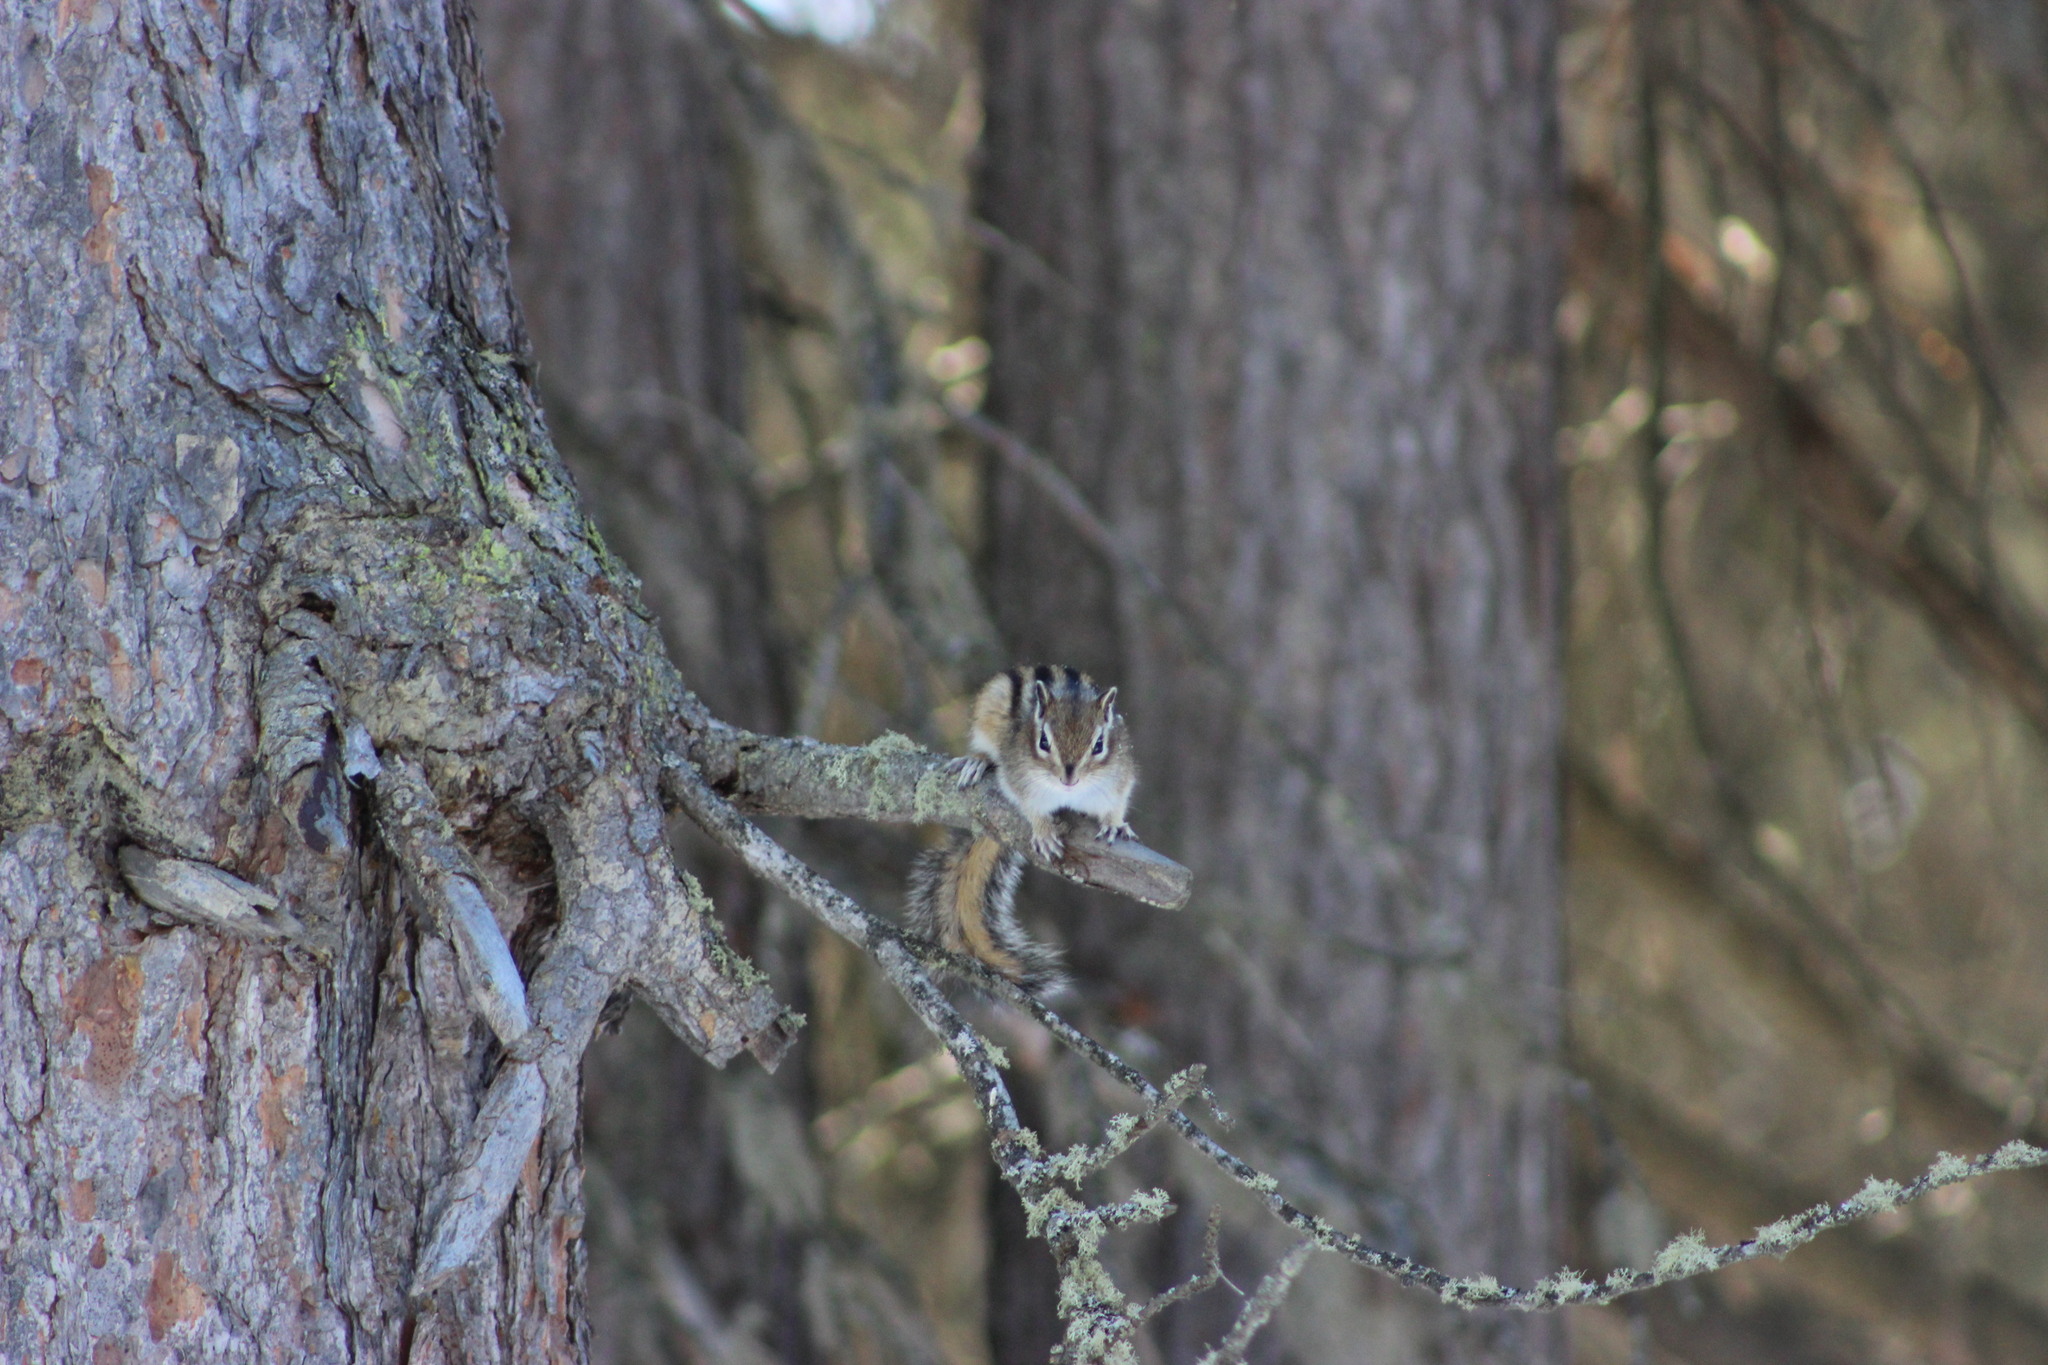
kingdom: Animalia
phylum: Chordata
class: Mammalia
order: Rodentia
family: Sciuridae
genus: Tamias
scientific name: Tamias sibiricus
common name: Siberian chipmunk
